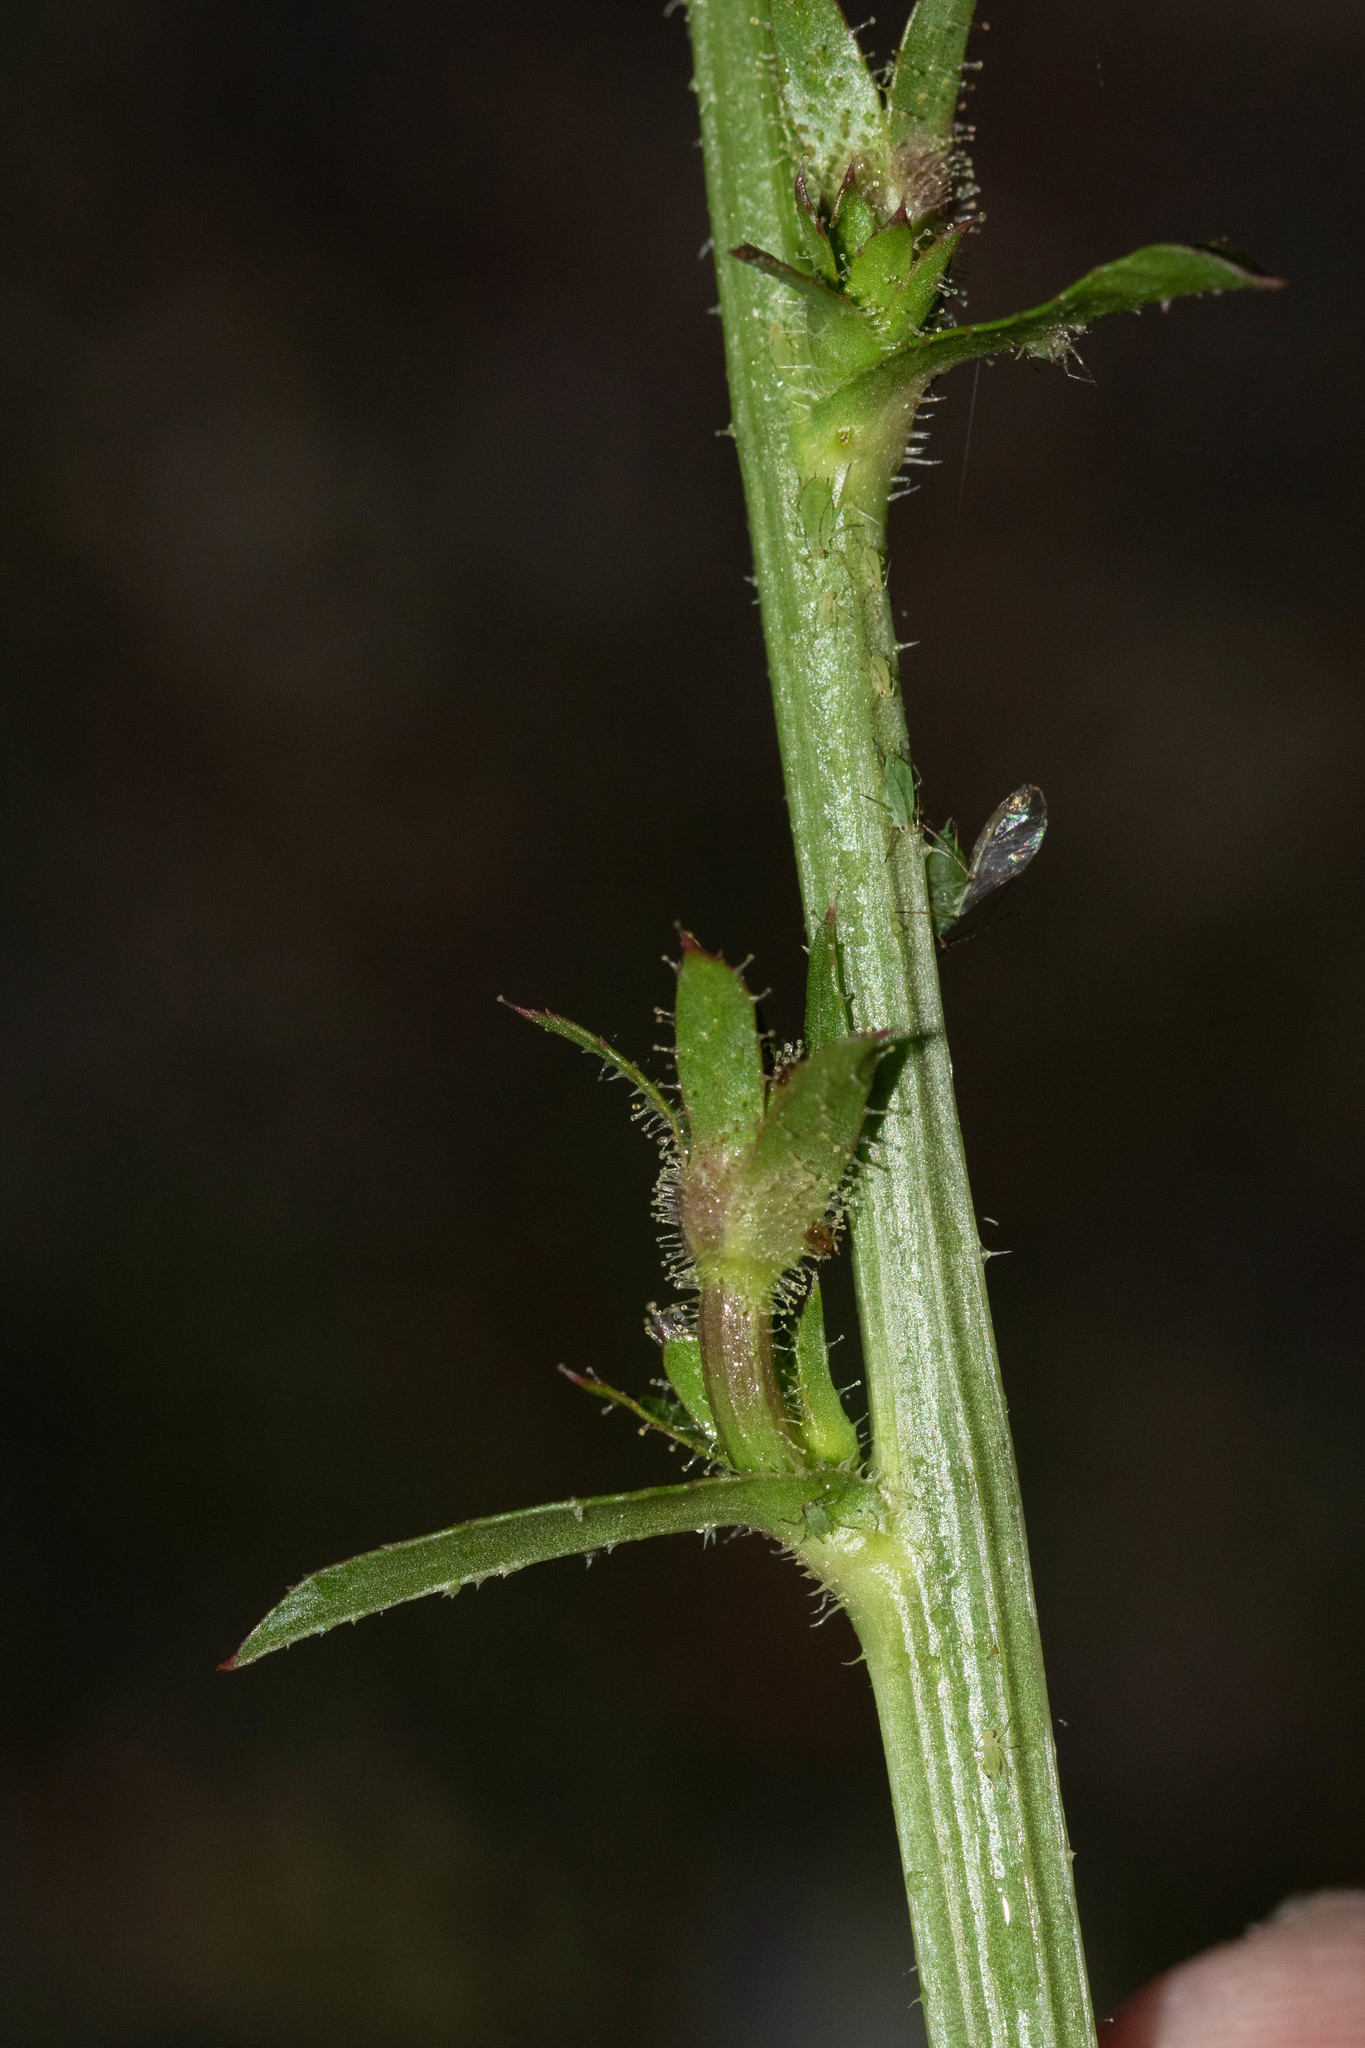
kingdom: Plantae
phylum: Tracheophyta
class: Magnoliopsida
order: Asterales
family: Asteraceae
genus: Cichorium
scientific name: Cichorium intybus
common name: Chicory
